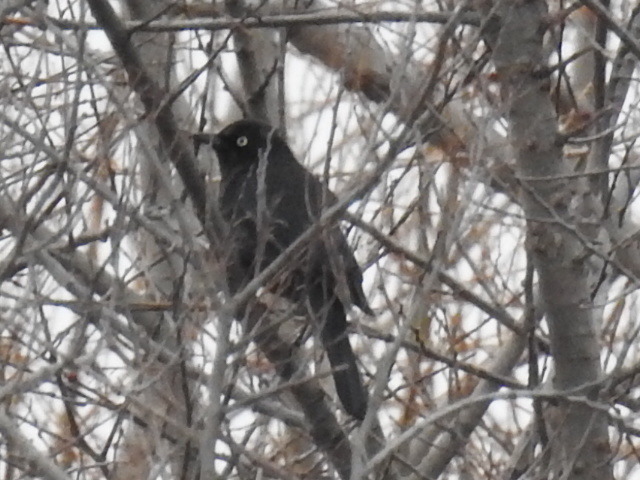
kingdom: Animalia
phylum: Chordata
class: Aves
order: Passeriformes
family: Icteridae
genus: Euphagus
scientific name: Euphagus carolinus
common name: Rusty blackbird
